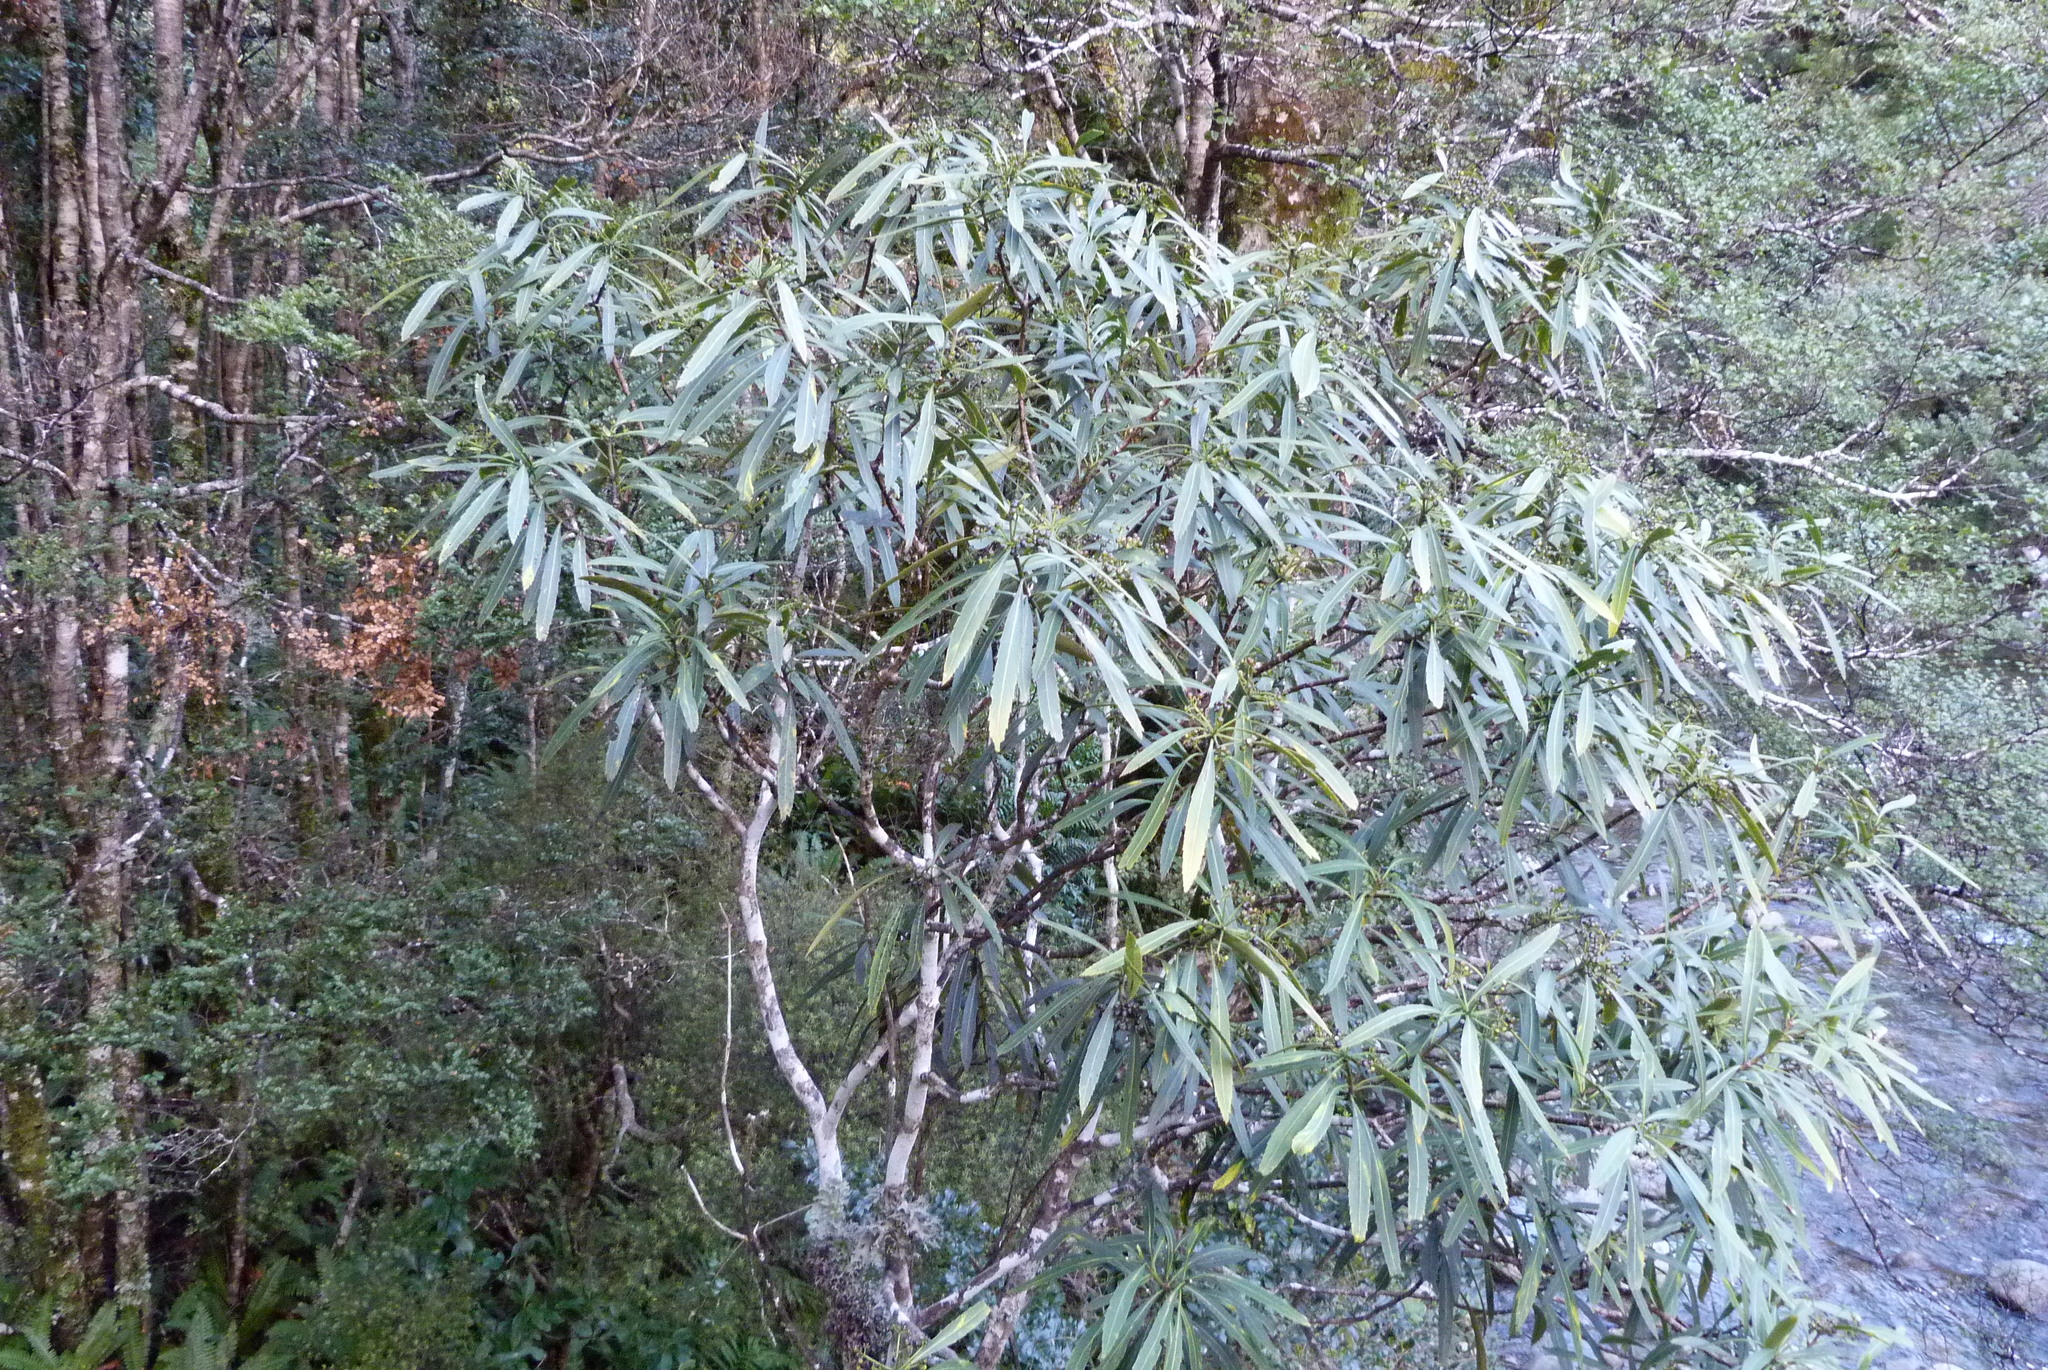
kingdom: Plantae
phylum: Tracheophyta
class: Magnoliopsida
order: Apiales
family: Araliaceae
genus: Pseudopanax
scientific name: Pseudopanax crassifolius
